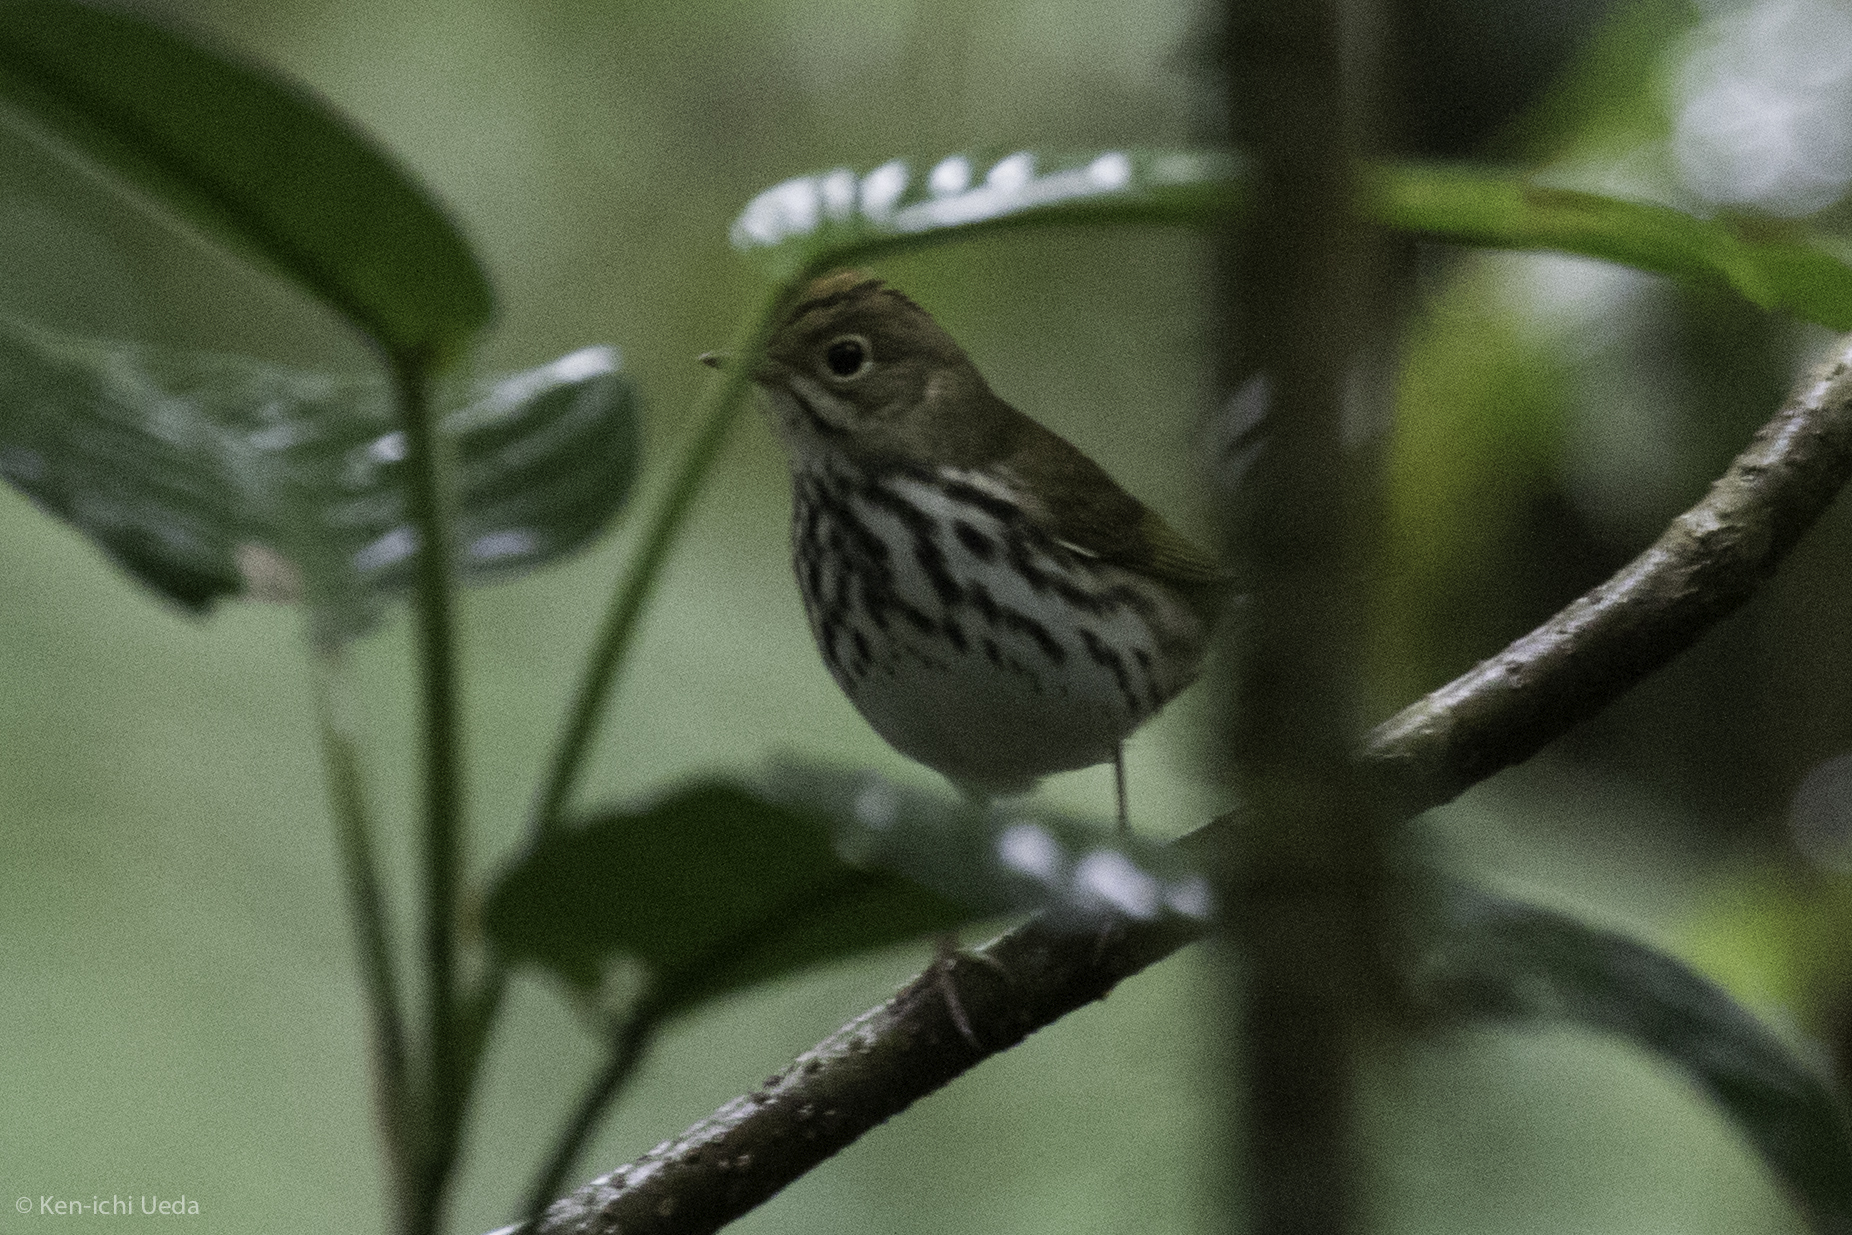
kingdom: Animalia
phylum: Chordata
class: Aves
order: Passeriformes
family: Parulidae
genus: Seiurus
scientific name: Seiurus aurocapilla
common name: Ovenbird
